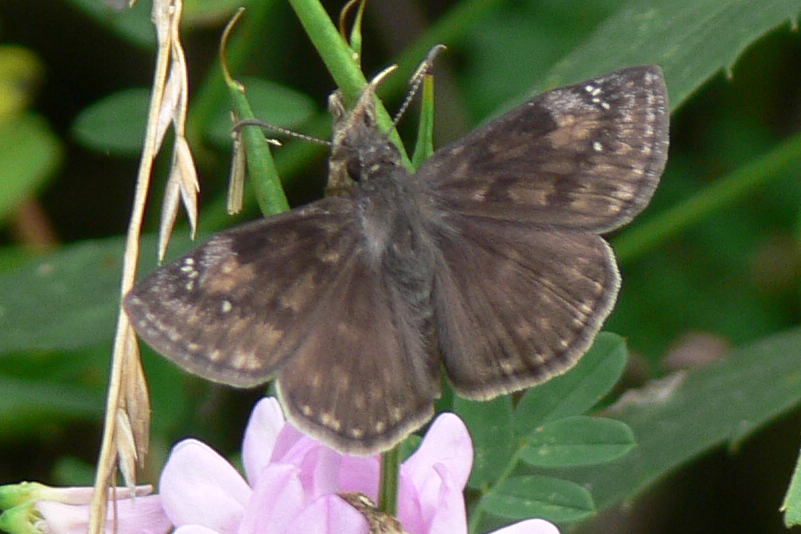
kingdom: Animalia
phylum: Arthropoda
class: Insecta
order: Lepidoptera
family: Hesperiidae
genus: Erynnis
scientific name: Erynnis baptisiae
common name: Wild indigo duskywing
